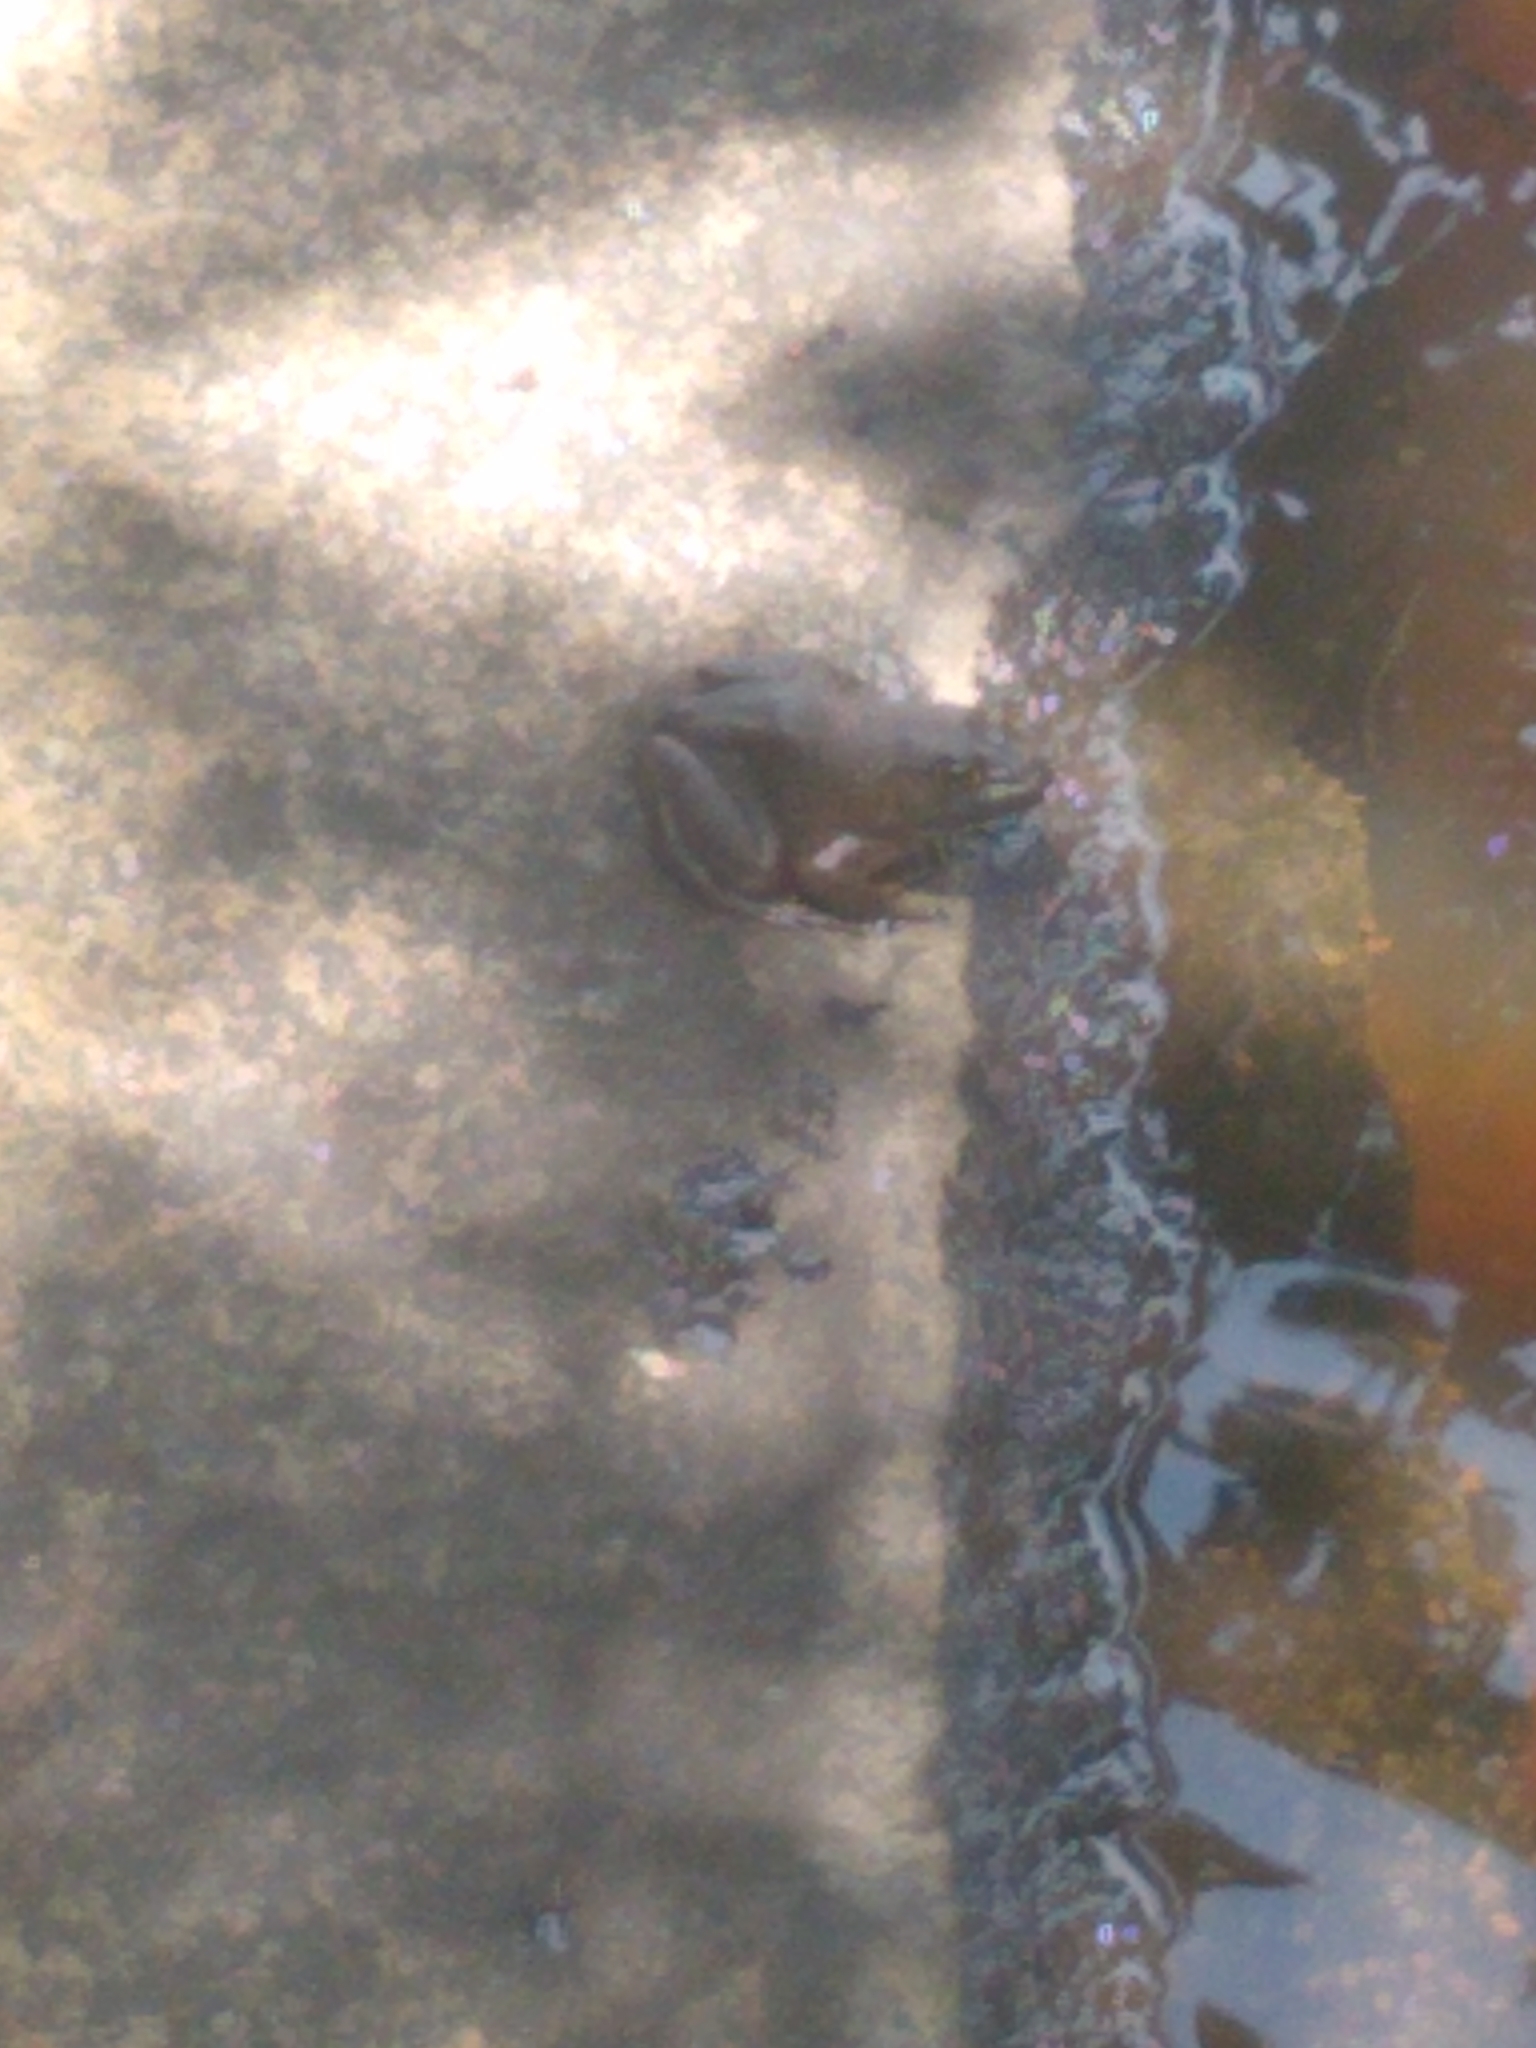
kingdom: Animalia
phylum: Chordata
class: Amphibia
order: Anura
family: Ranidae
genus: Lithobates
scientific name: Lithobates catesbeianus
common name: American bullfrog
